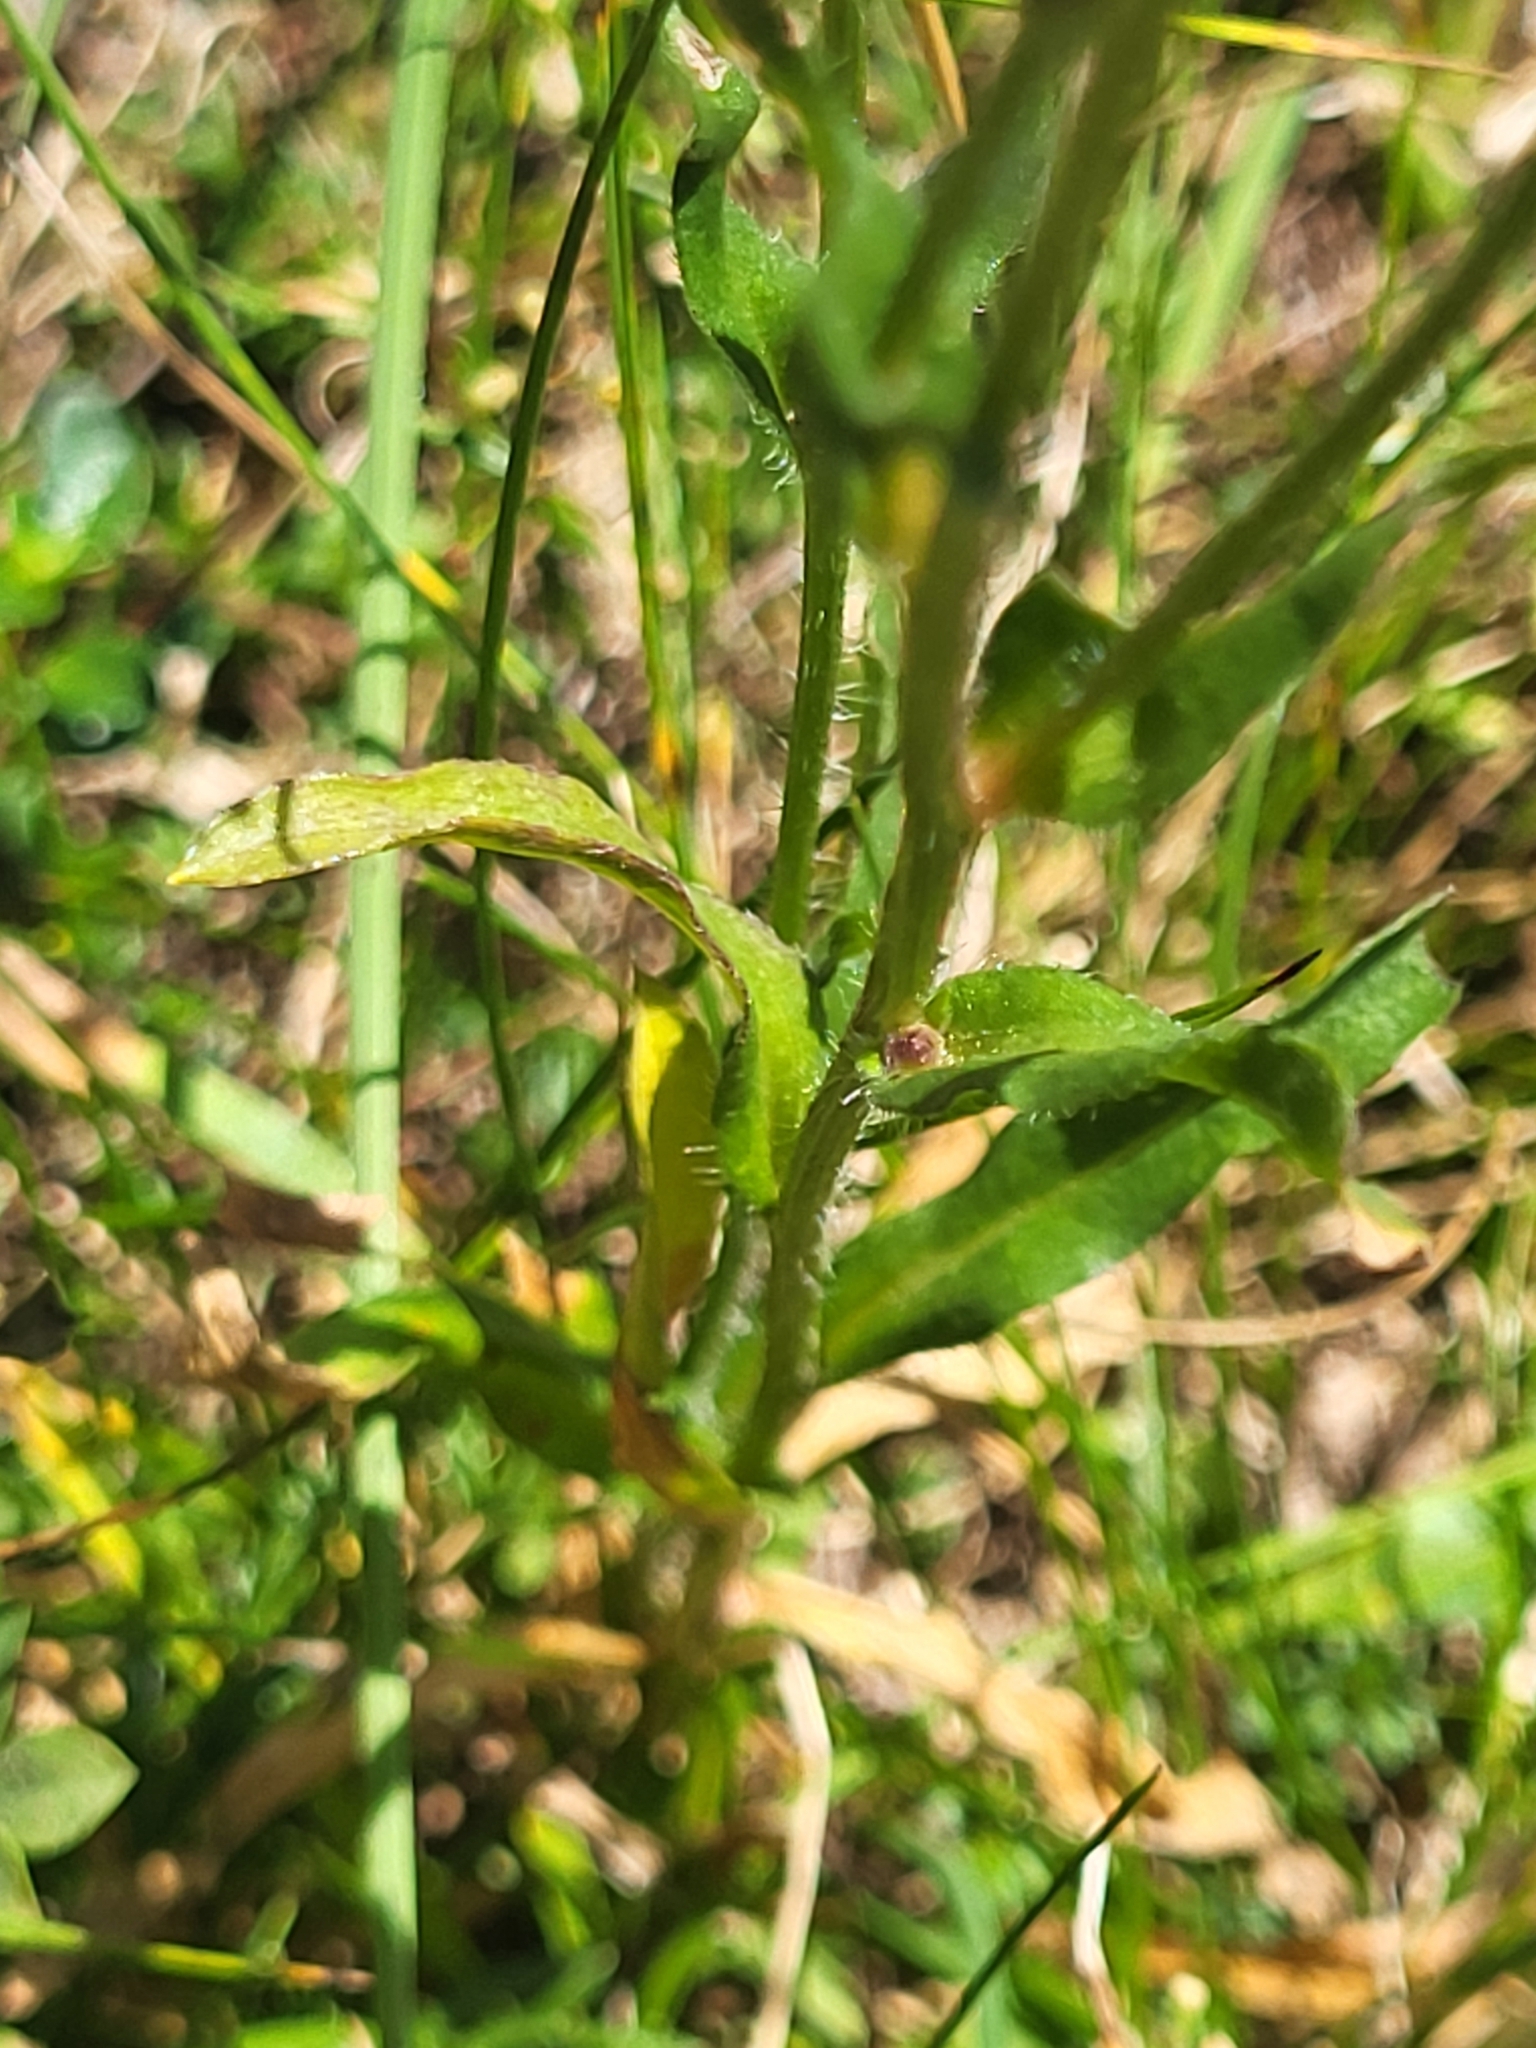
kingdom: Plantae
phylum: Tracheophyta
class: Magnoliopsida
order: Asterales
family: Asteraceae
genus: Erigeron
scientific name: Erigeron glabratus
